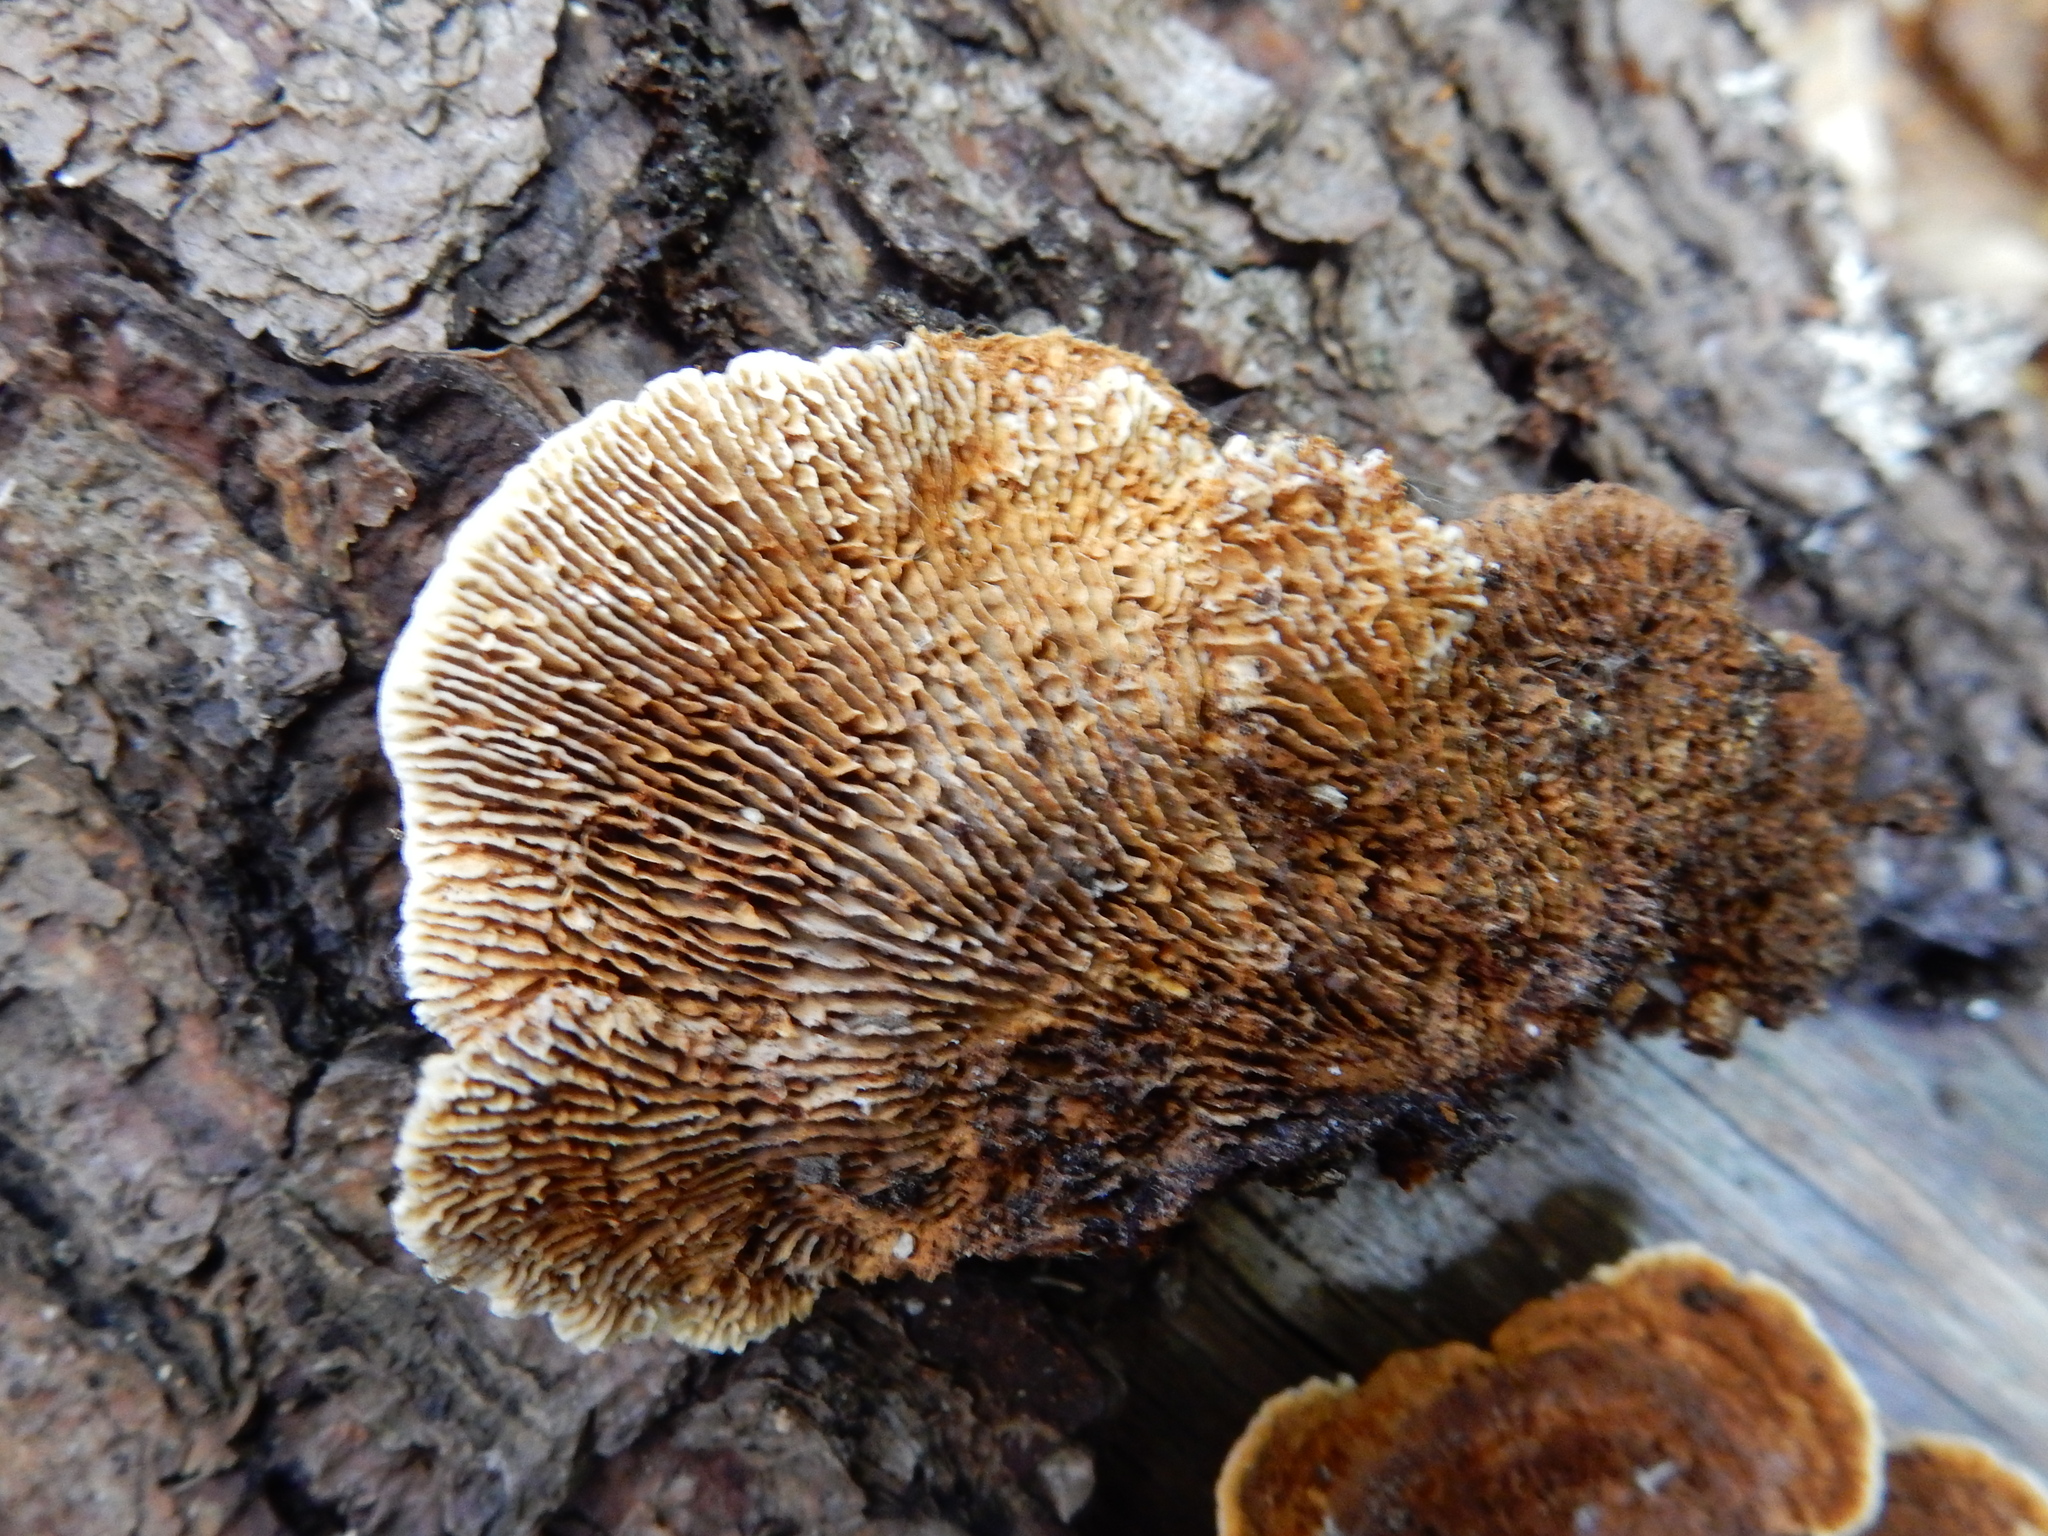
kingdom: Fungi
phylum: Basidiomycota
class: Agaricomycetes
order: Gloeophyllales
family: Gloeophyllaceae
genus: Gloeophyllum
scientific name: Gloeophyllum sepiarium
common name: Conifer mazegill
